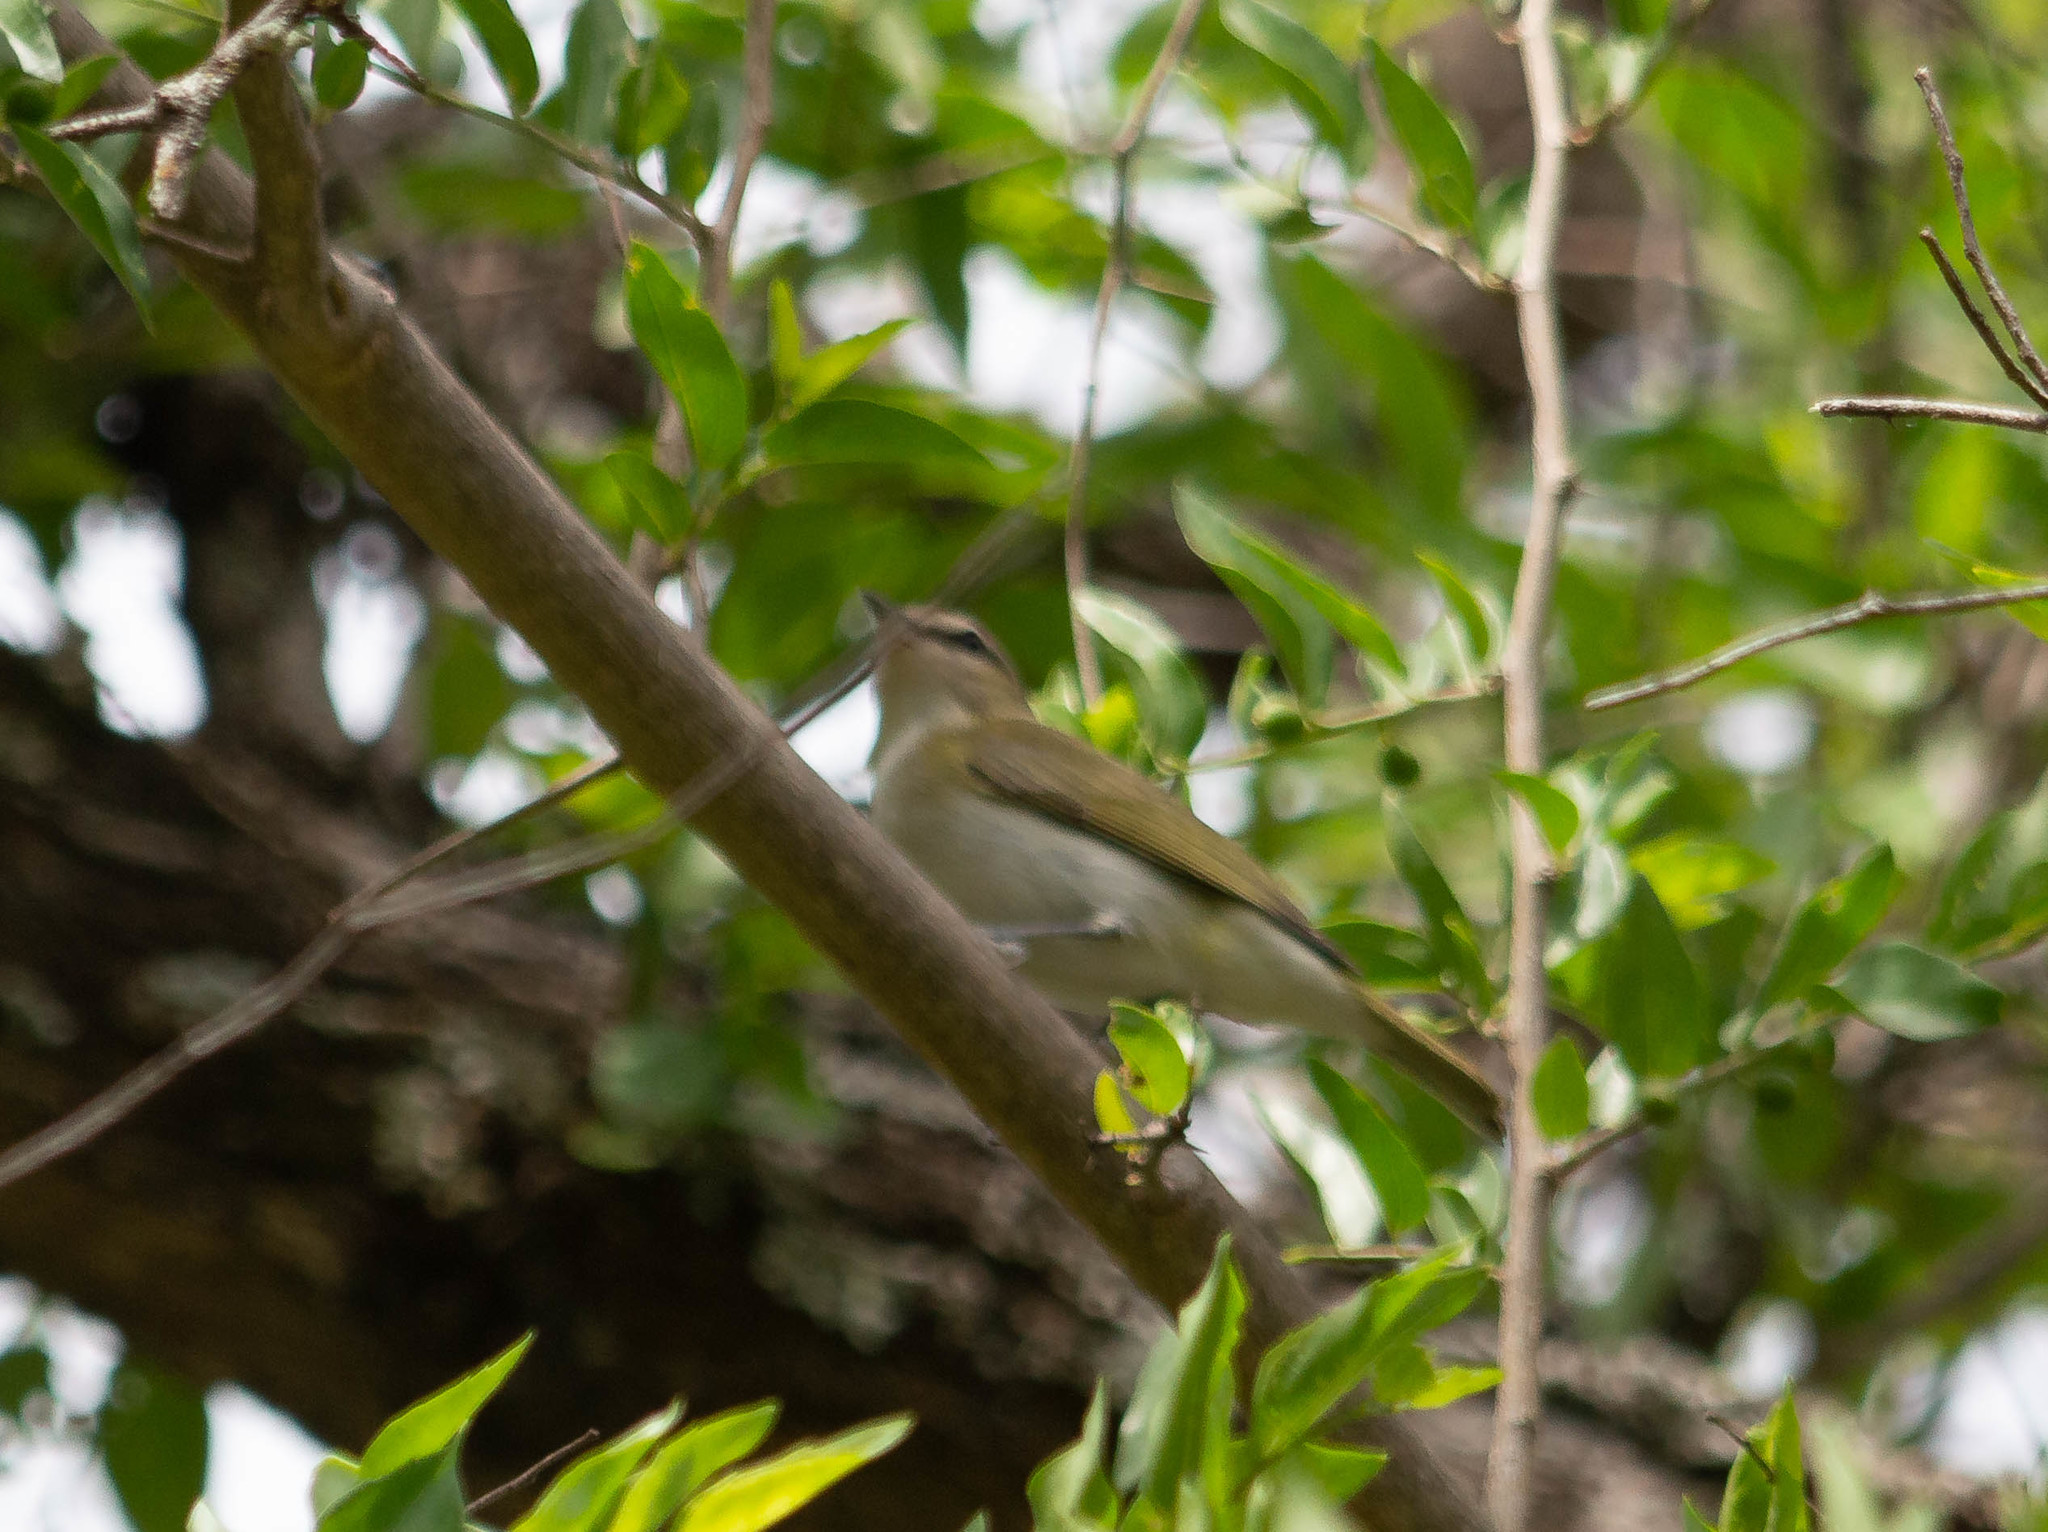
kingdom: Animalia
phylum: Chordata
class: Aves
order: Passeriformes
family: Vireonidae
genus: Vireo
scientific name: Vireo olivaceus
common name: Red-eyed vireo
